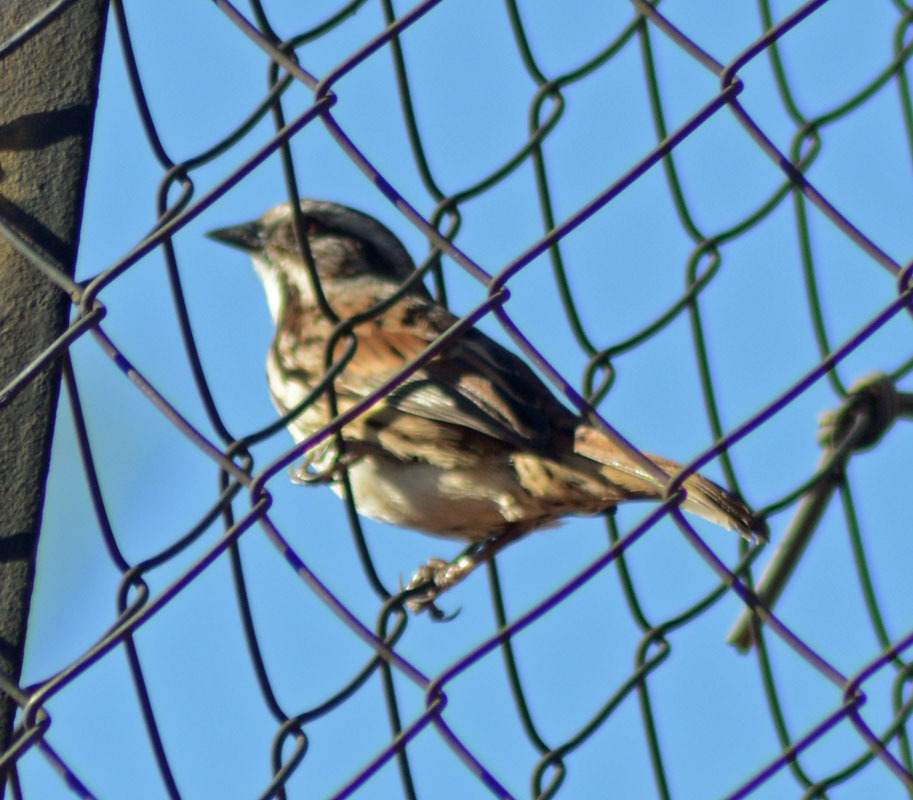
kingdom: Animalia
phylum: Chordata
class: Aves
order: Passeriformes
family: Passerellidae
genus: Melospiza
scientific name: Melospiza melodia
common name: Song sparrow
